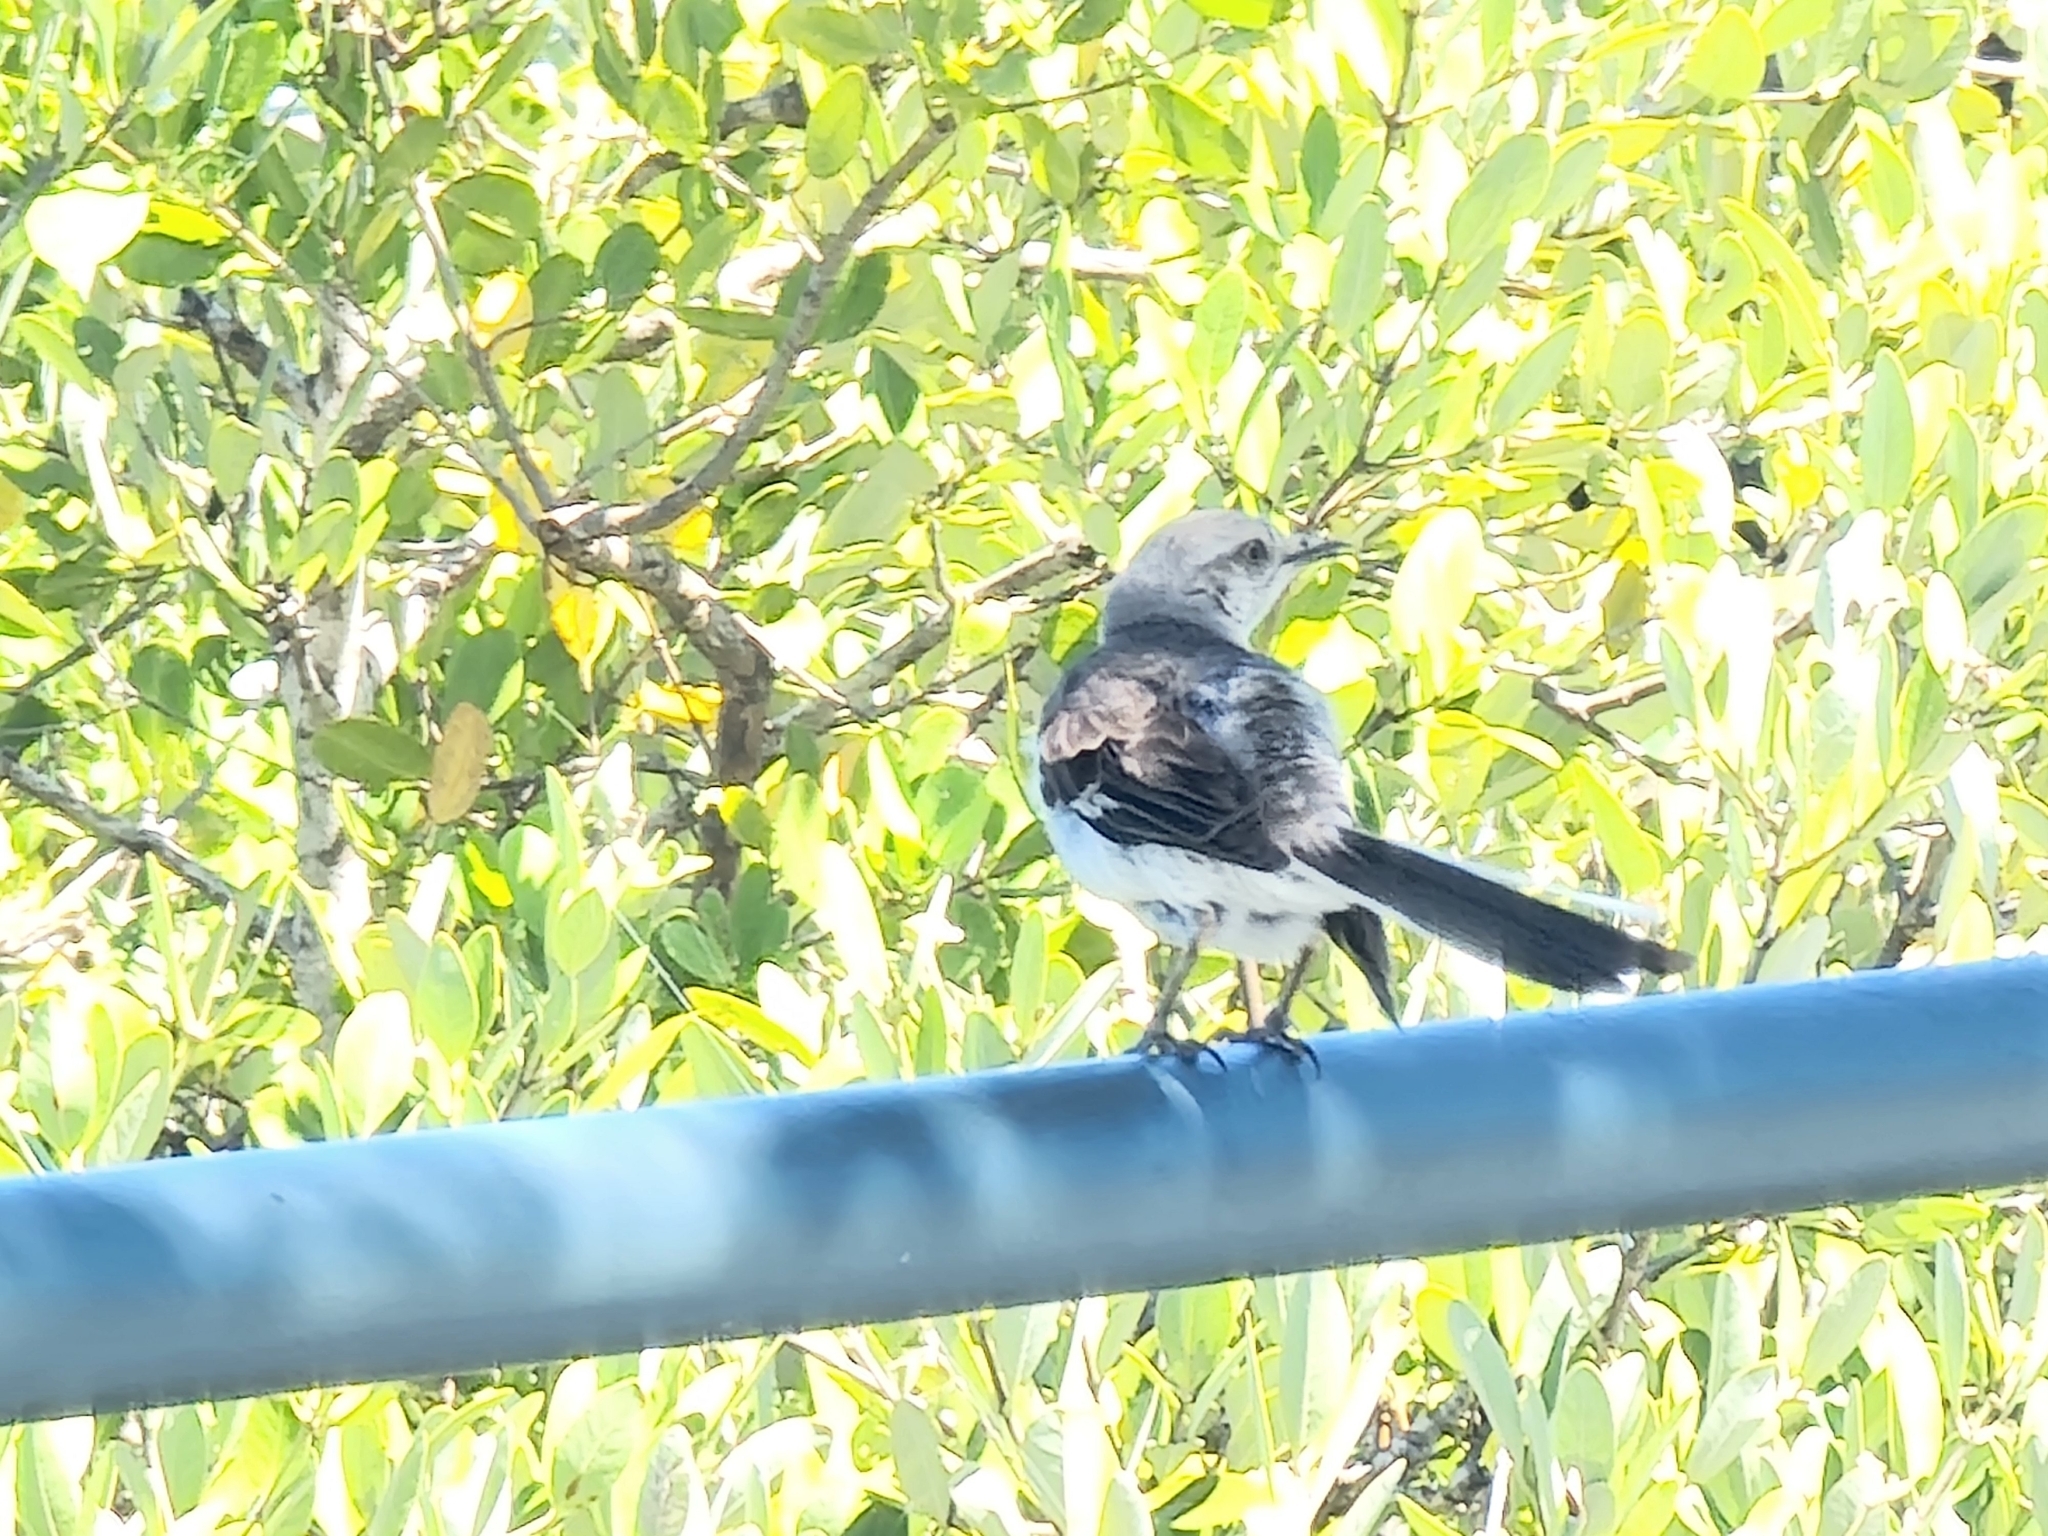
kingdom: Animalia
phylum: Chordata
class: Aves
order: Passeriformes
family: Mimidae
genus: Mimus
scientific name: Mimus polyglottos
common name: Northern mockingbird
